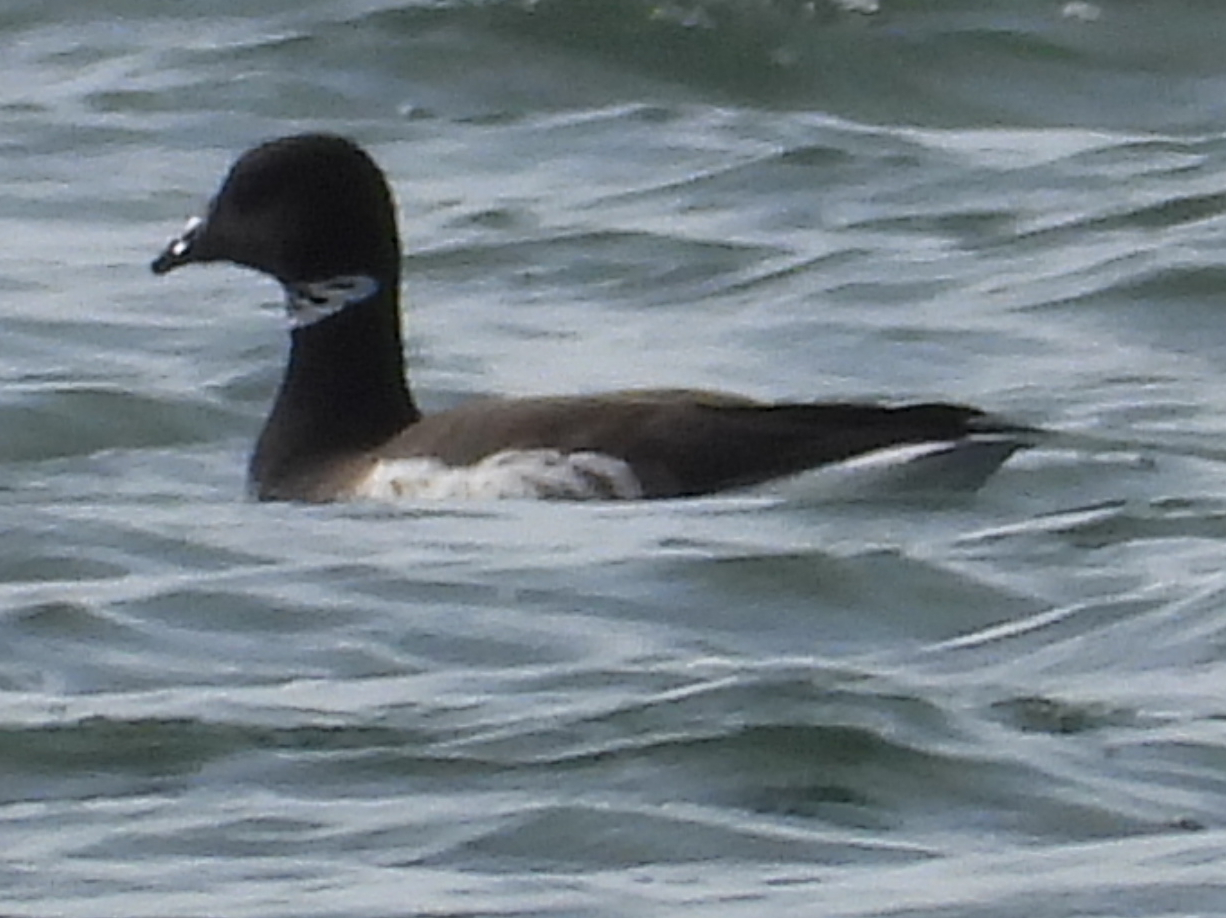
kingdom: Animalia
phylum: Chordata
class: Aves
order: Anseriformes
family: Anatidae
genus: Branta
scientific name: Branta bernicla
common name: Brant goose
